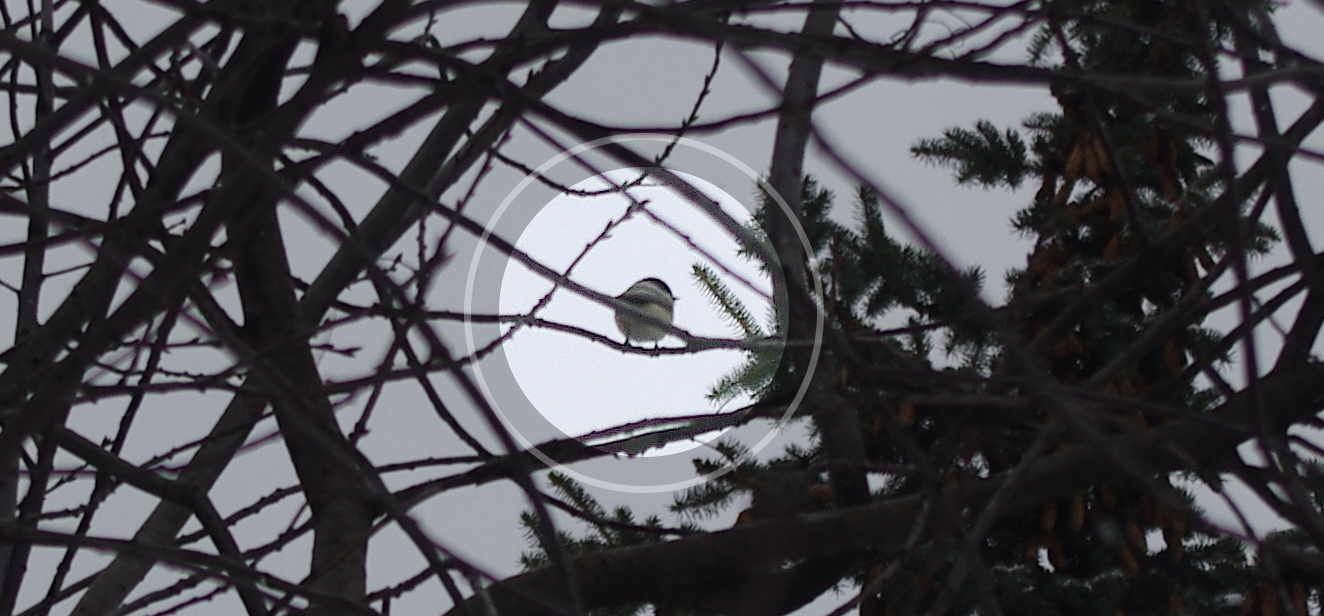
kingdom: Animalia
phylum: Chordata
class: Aves
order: Passeriformes
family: Paridae
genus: Poecile
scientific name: Poecile montanus
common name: Willow tit
